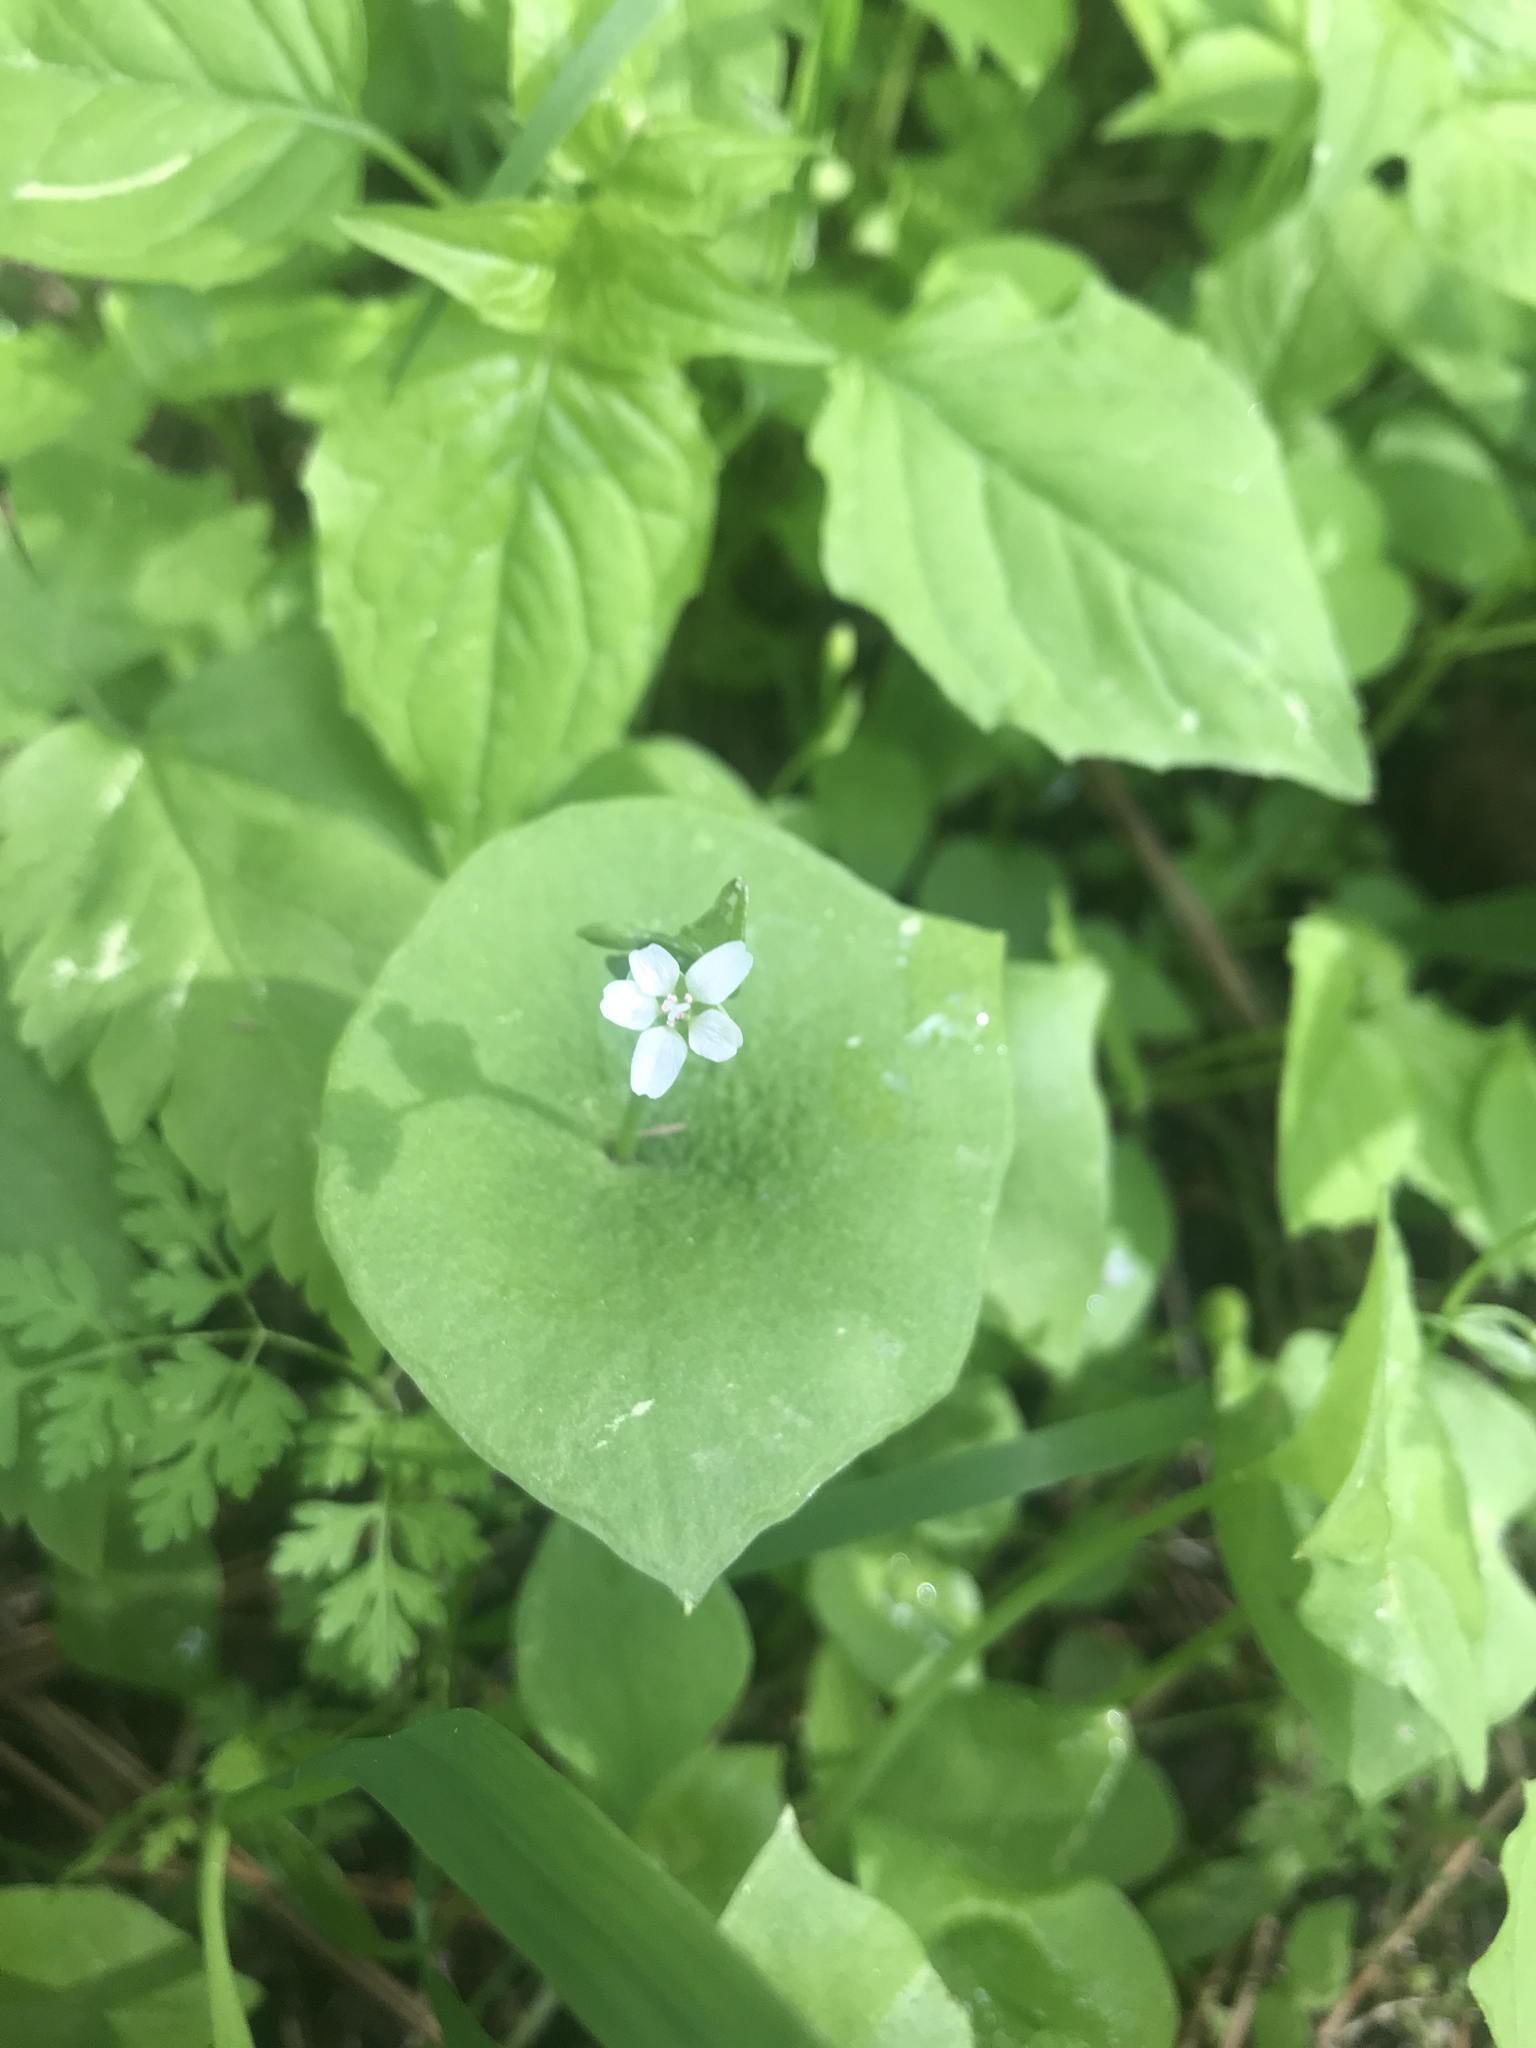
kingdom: Plantae
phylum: Tracheophyta
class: Magnoliopsida
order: Caryophyllales
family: Montiaceae
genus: Claytonia
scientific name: Claytonia perfoliata
